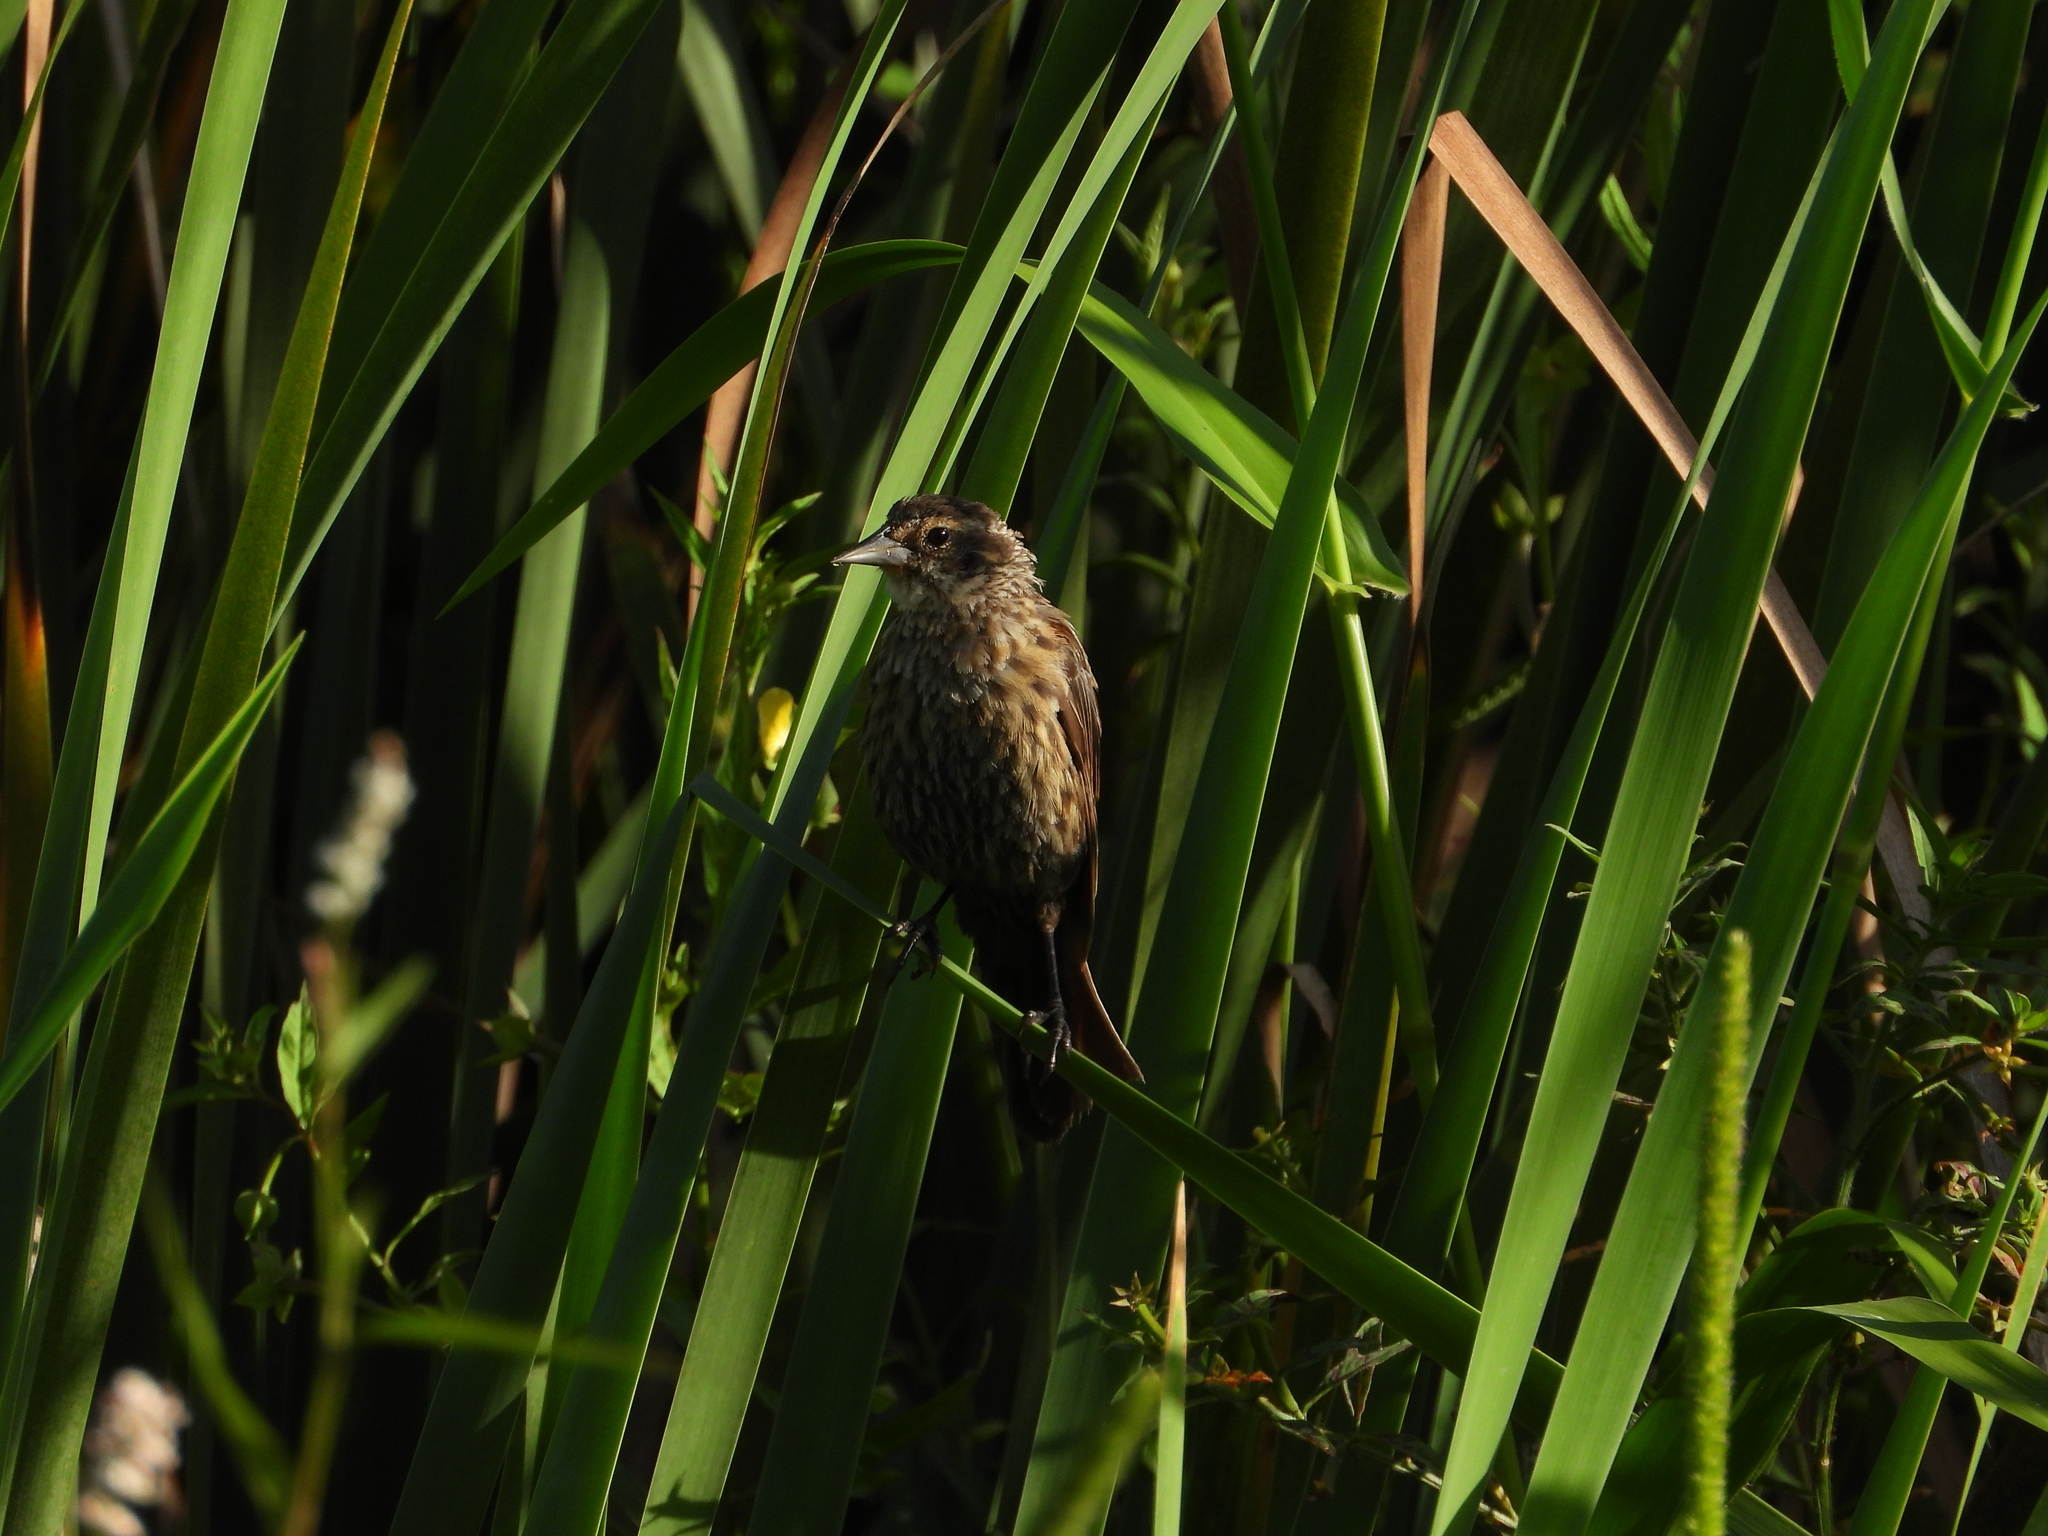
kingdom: Animalia
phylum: Chordata
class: Aves
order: Passeriformes
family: Icteridae
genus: Agelaius
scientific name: Agelaius phoeniceus
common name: Red-winged blackbird
